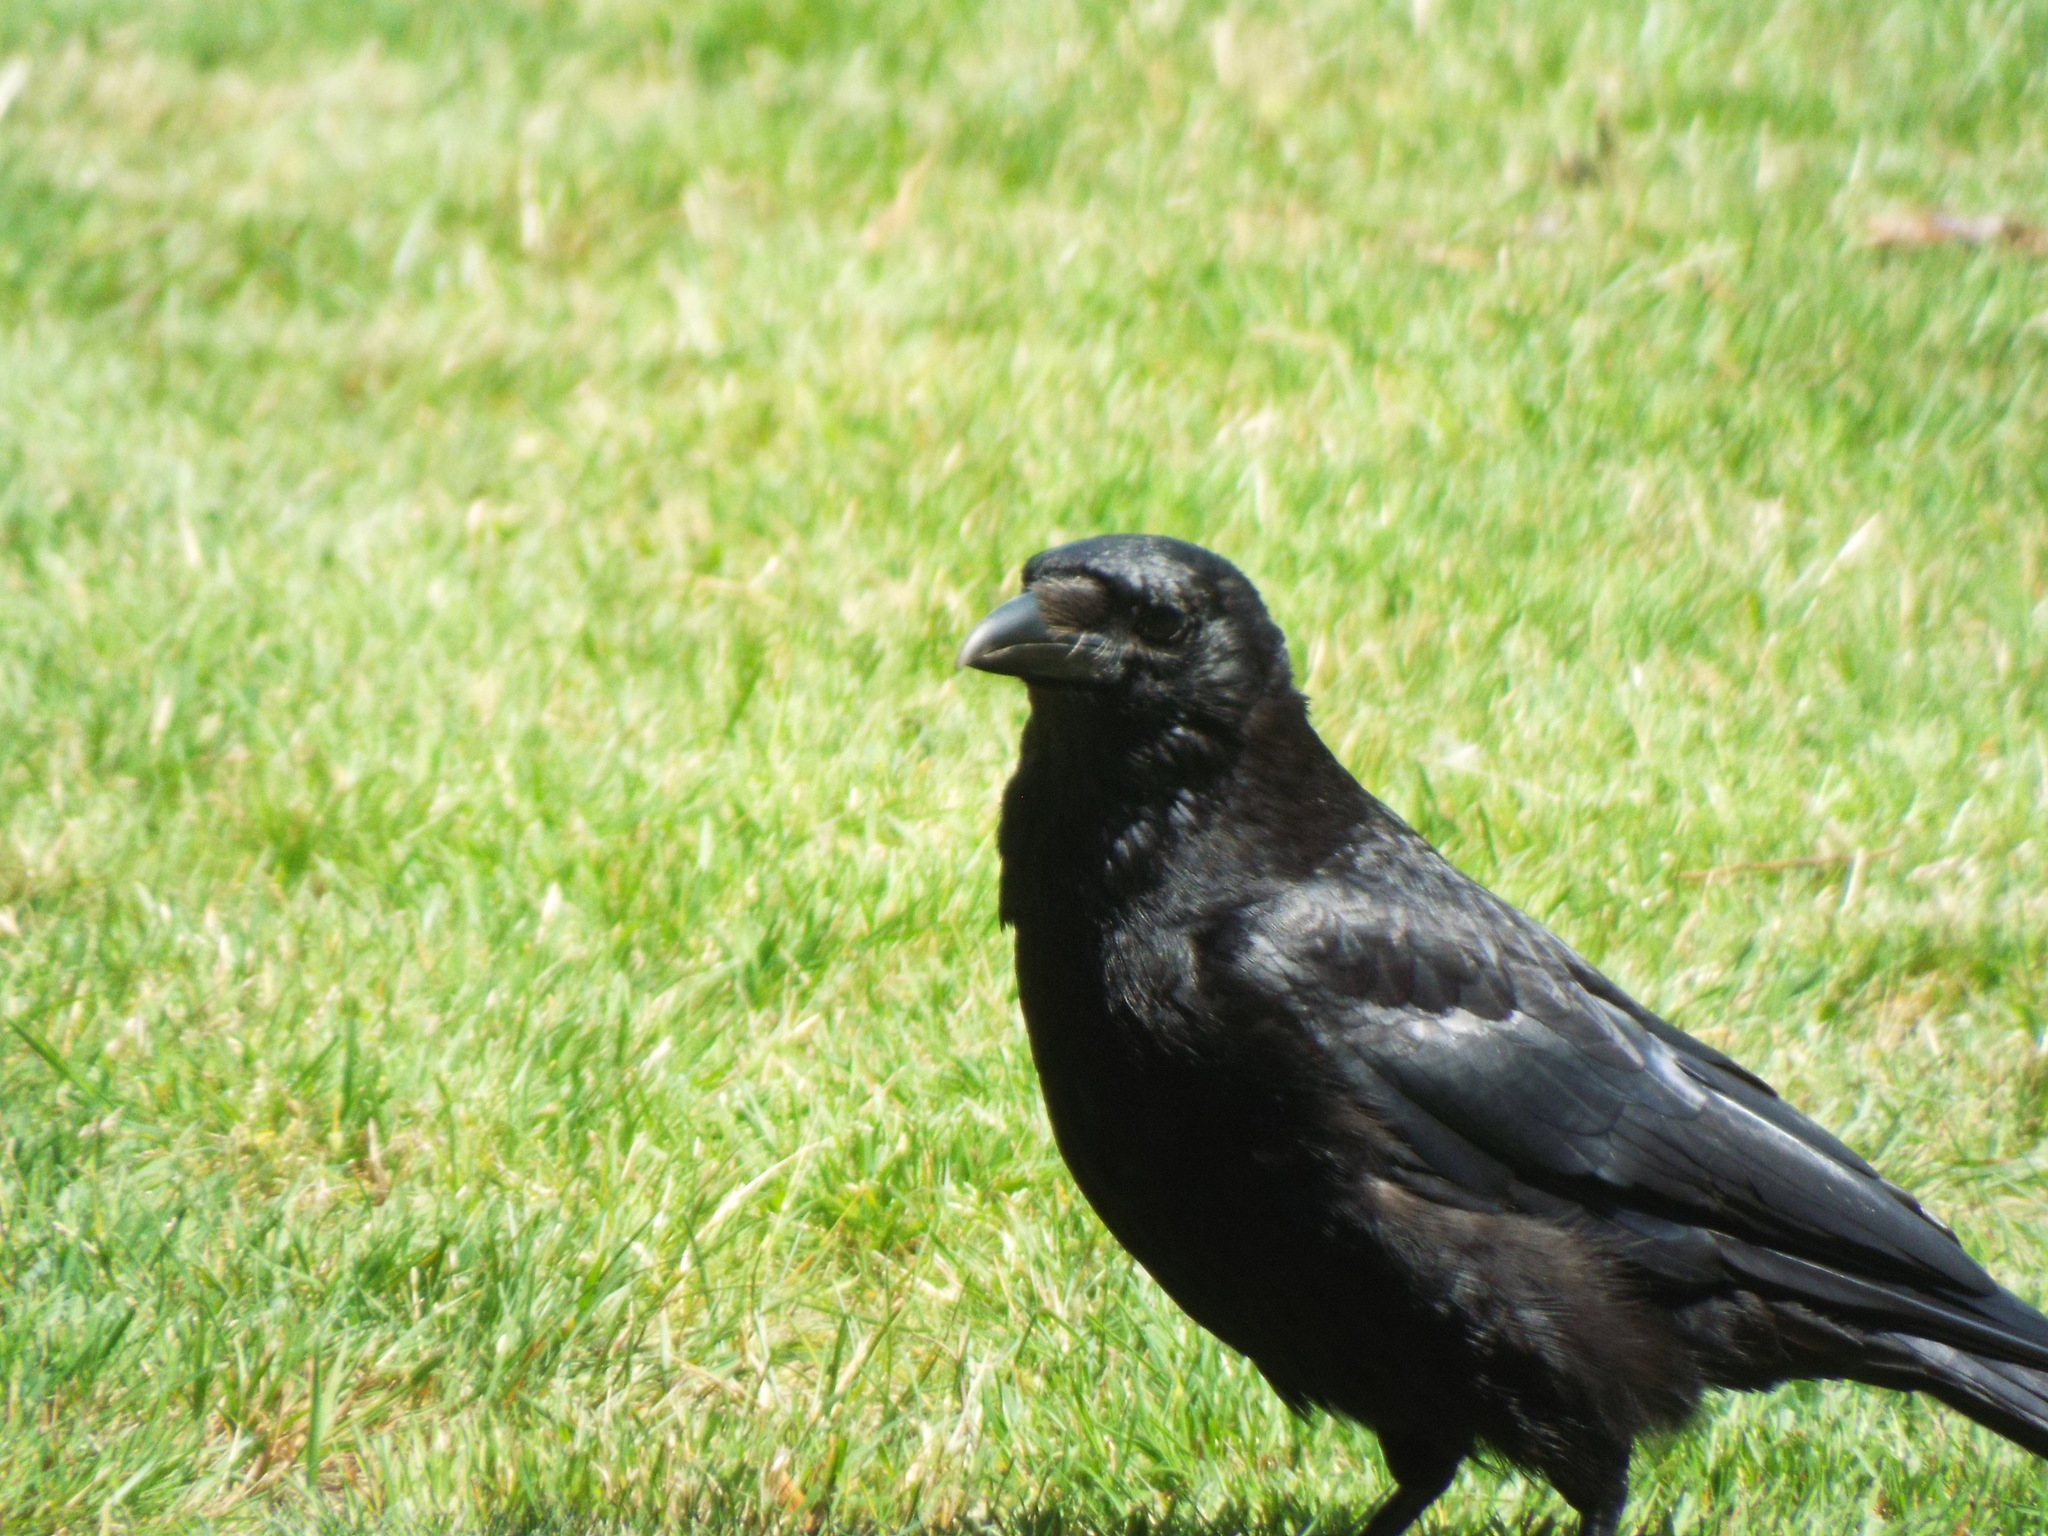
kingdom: Animalia
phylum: Chordata
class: Aves
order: Passeriformes
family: Corvidae
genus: Corvus
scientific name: Corvus corone
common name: Carrion crow
